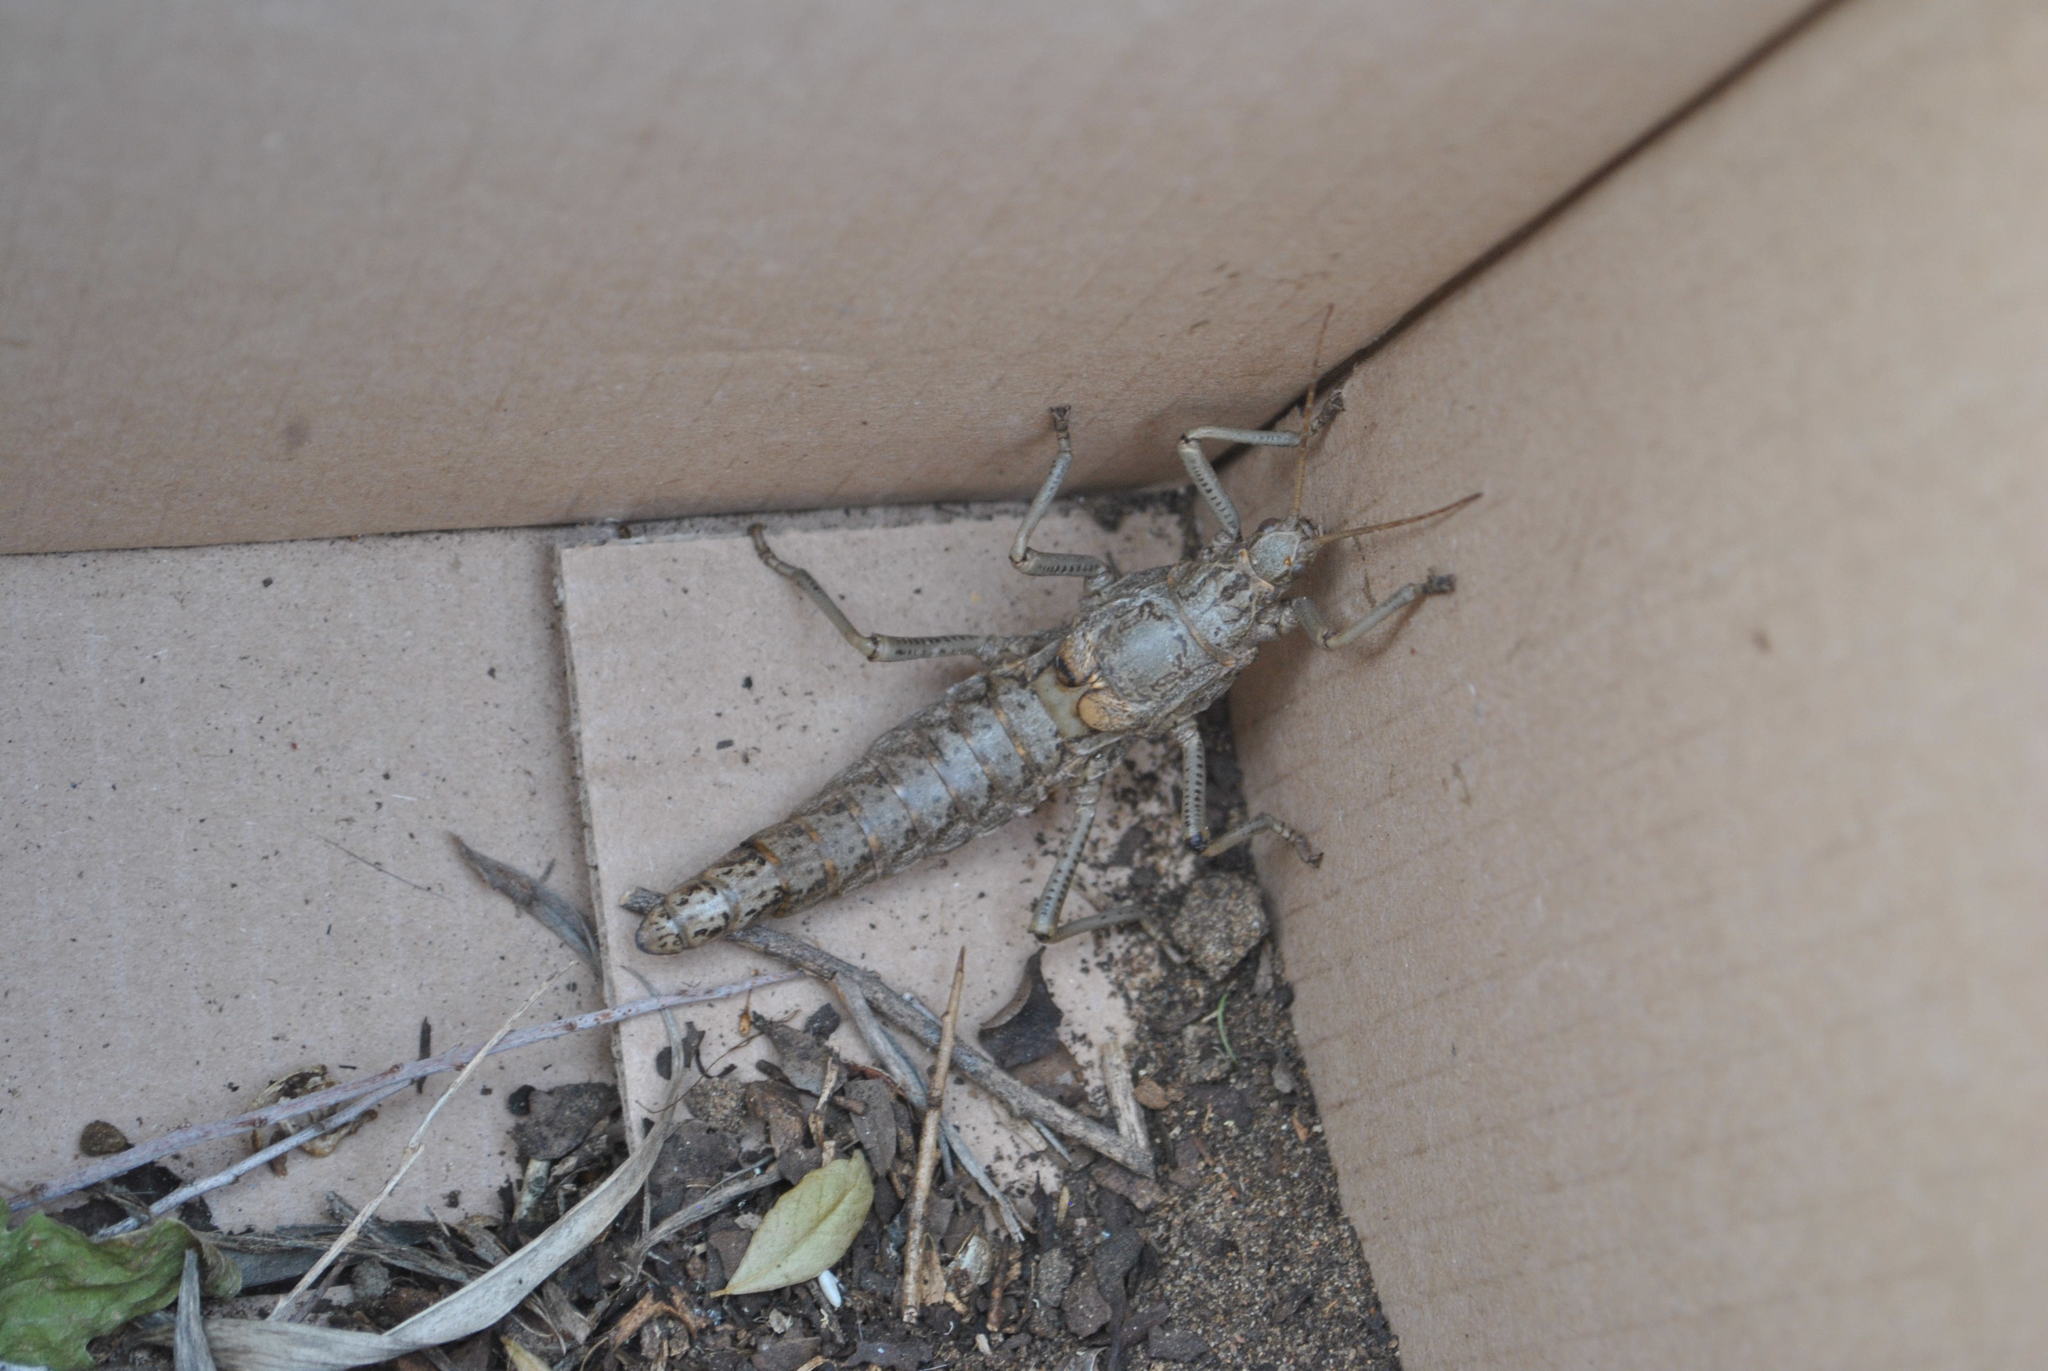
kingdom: Animalia
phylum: Arthropoda
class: Insecta
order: Phasmida
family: Agathemeridae
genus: Agathemera
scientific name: Agathemera luteola
